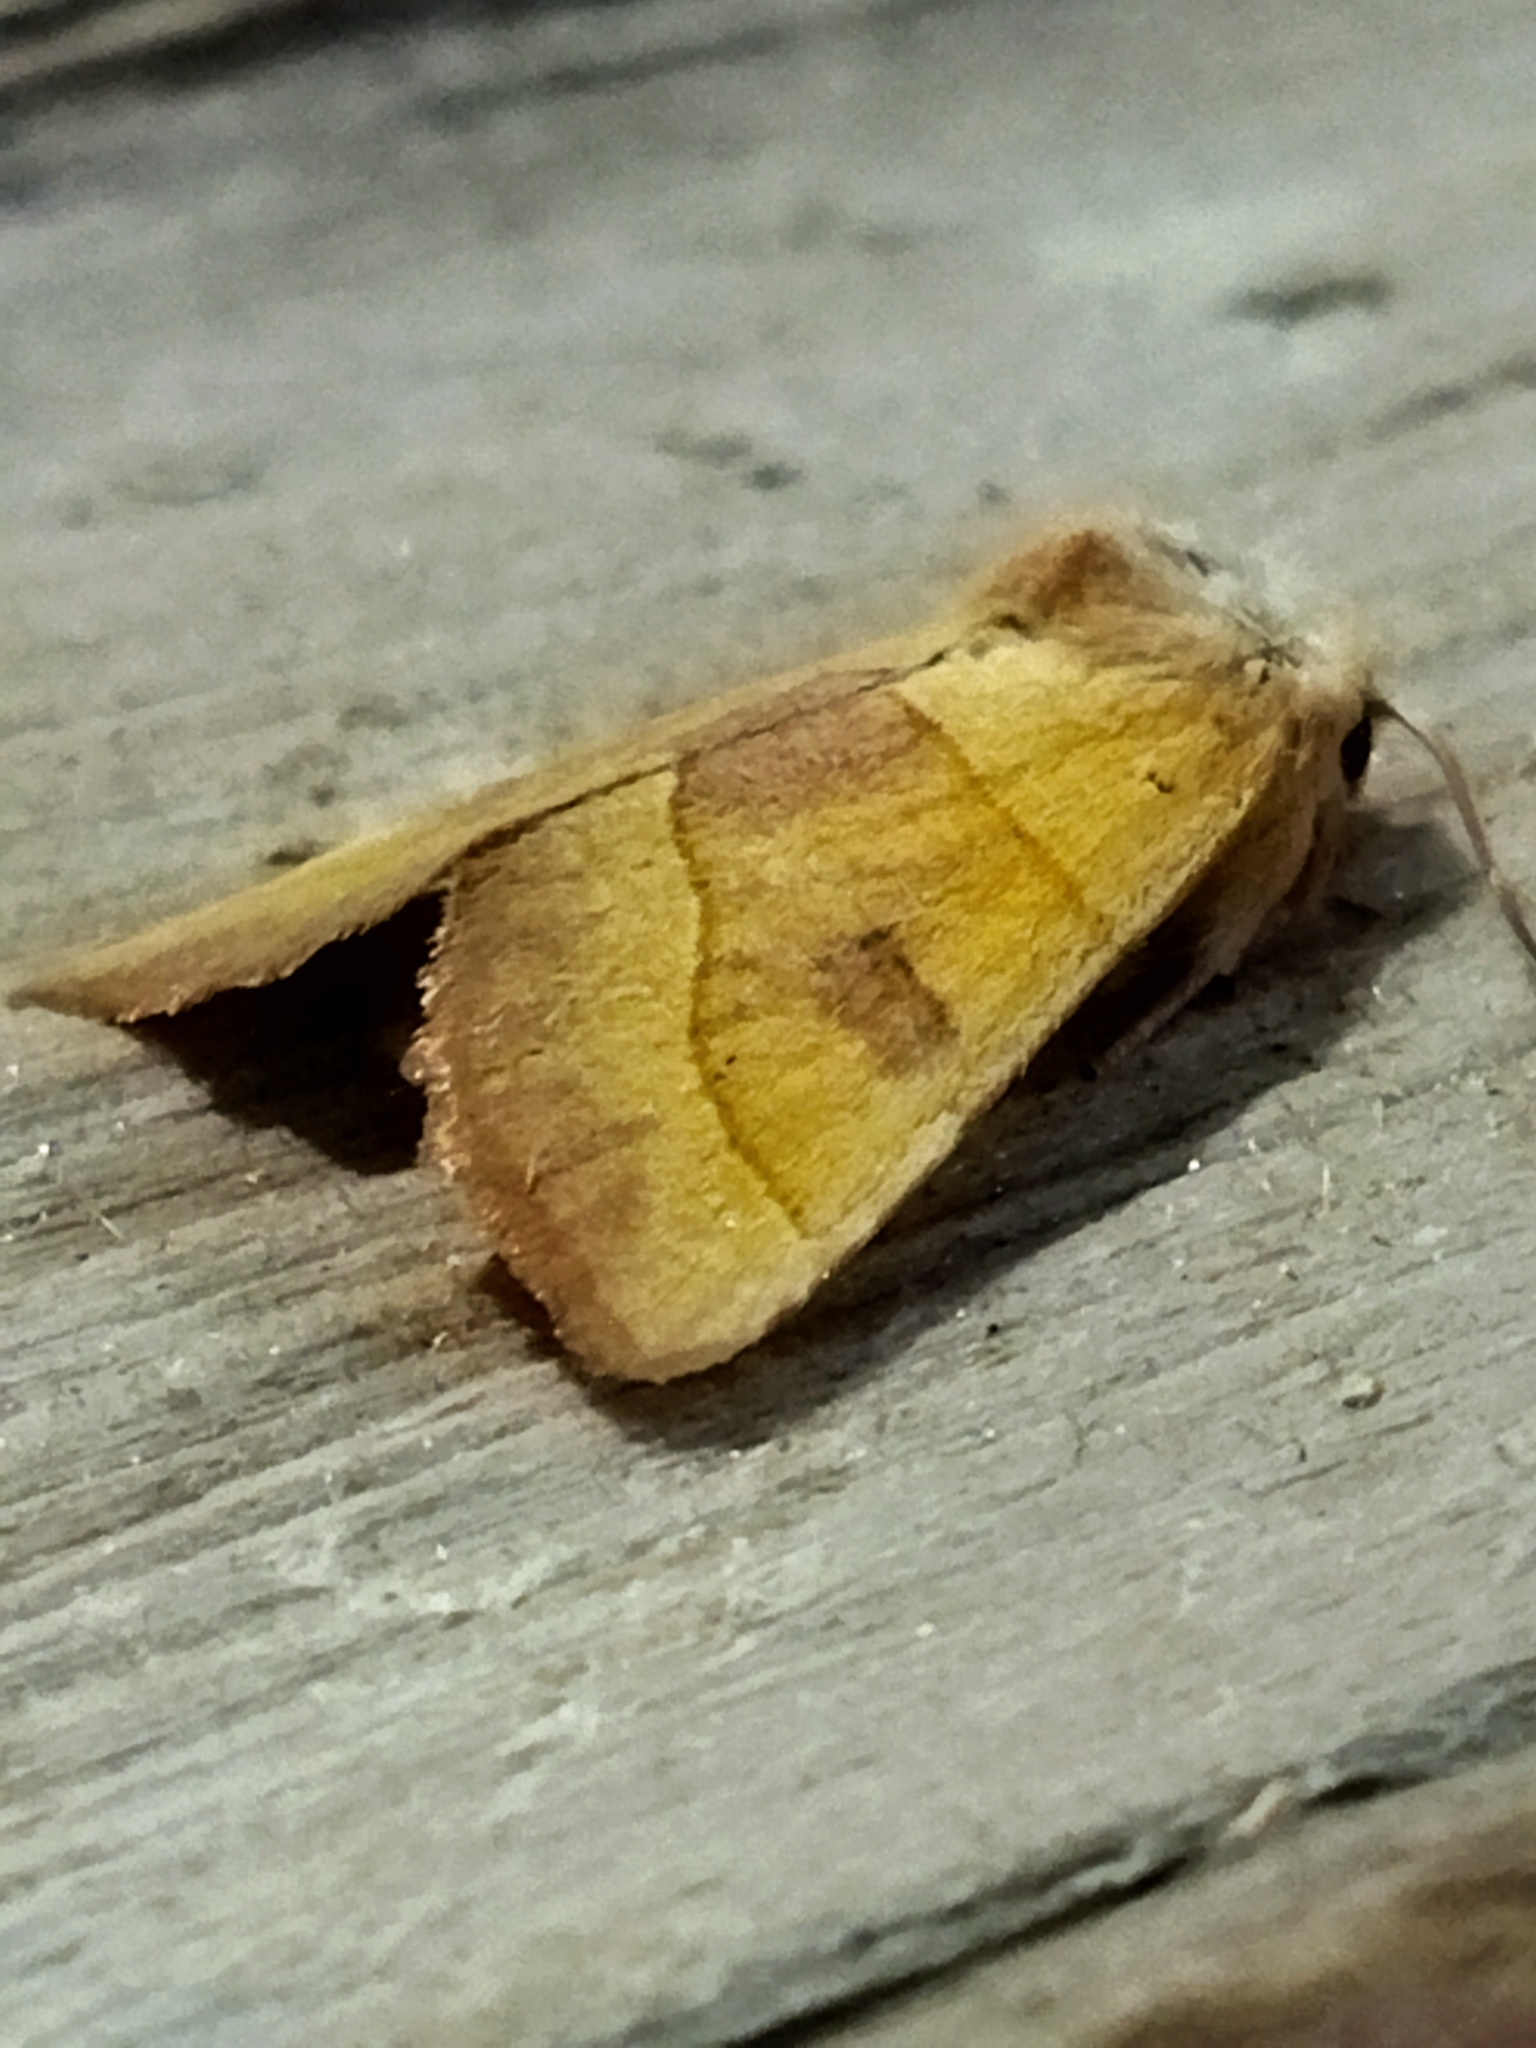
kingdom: Animalia
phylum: Arthropoda
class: Insecta
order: Lepidoptera
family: Noctuidae
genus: Atethmia
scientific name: Atethmia centrago
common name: Centre-barred sallow
